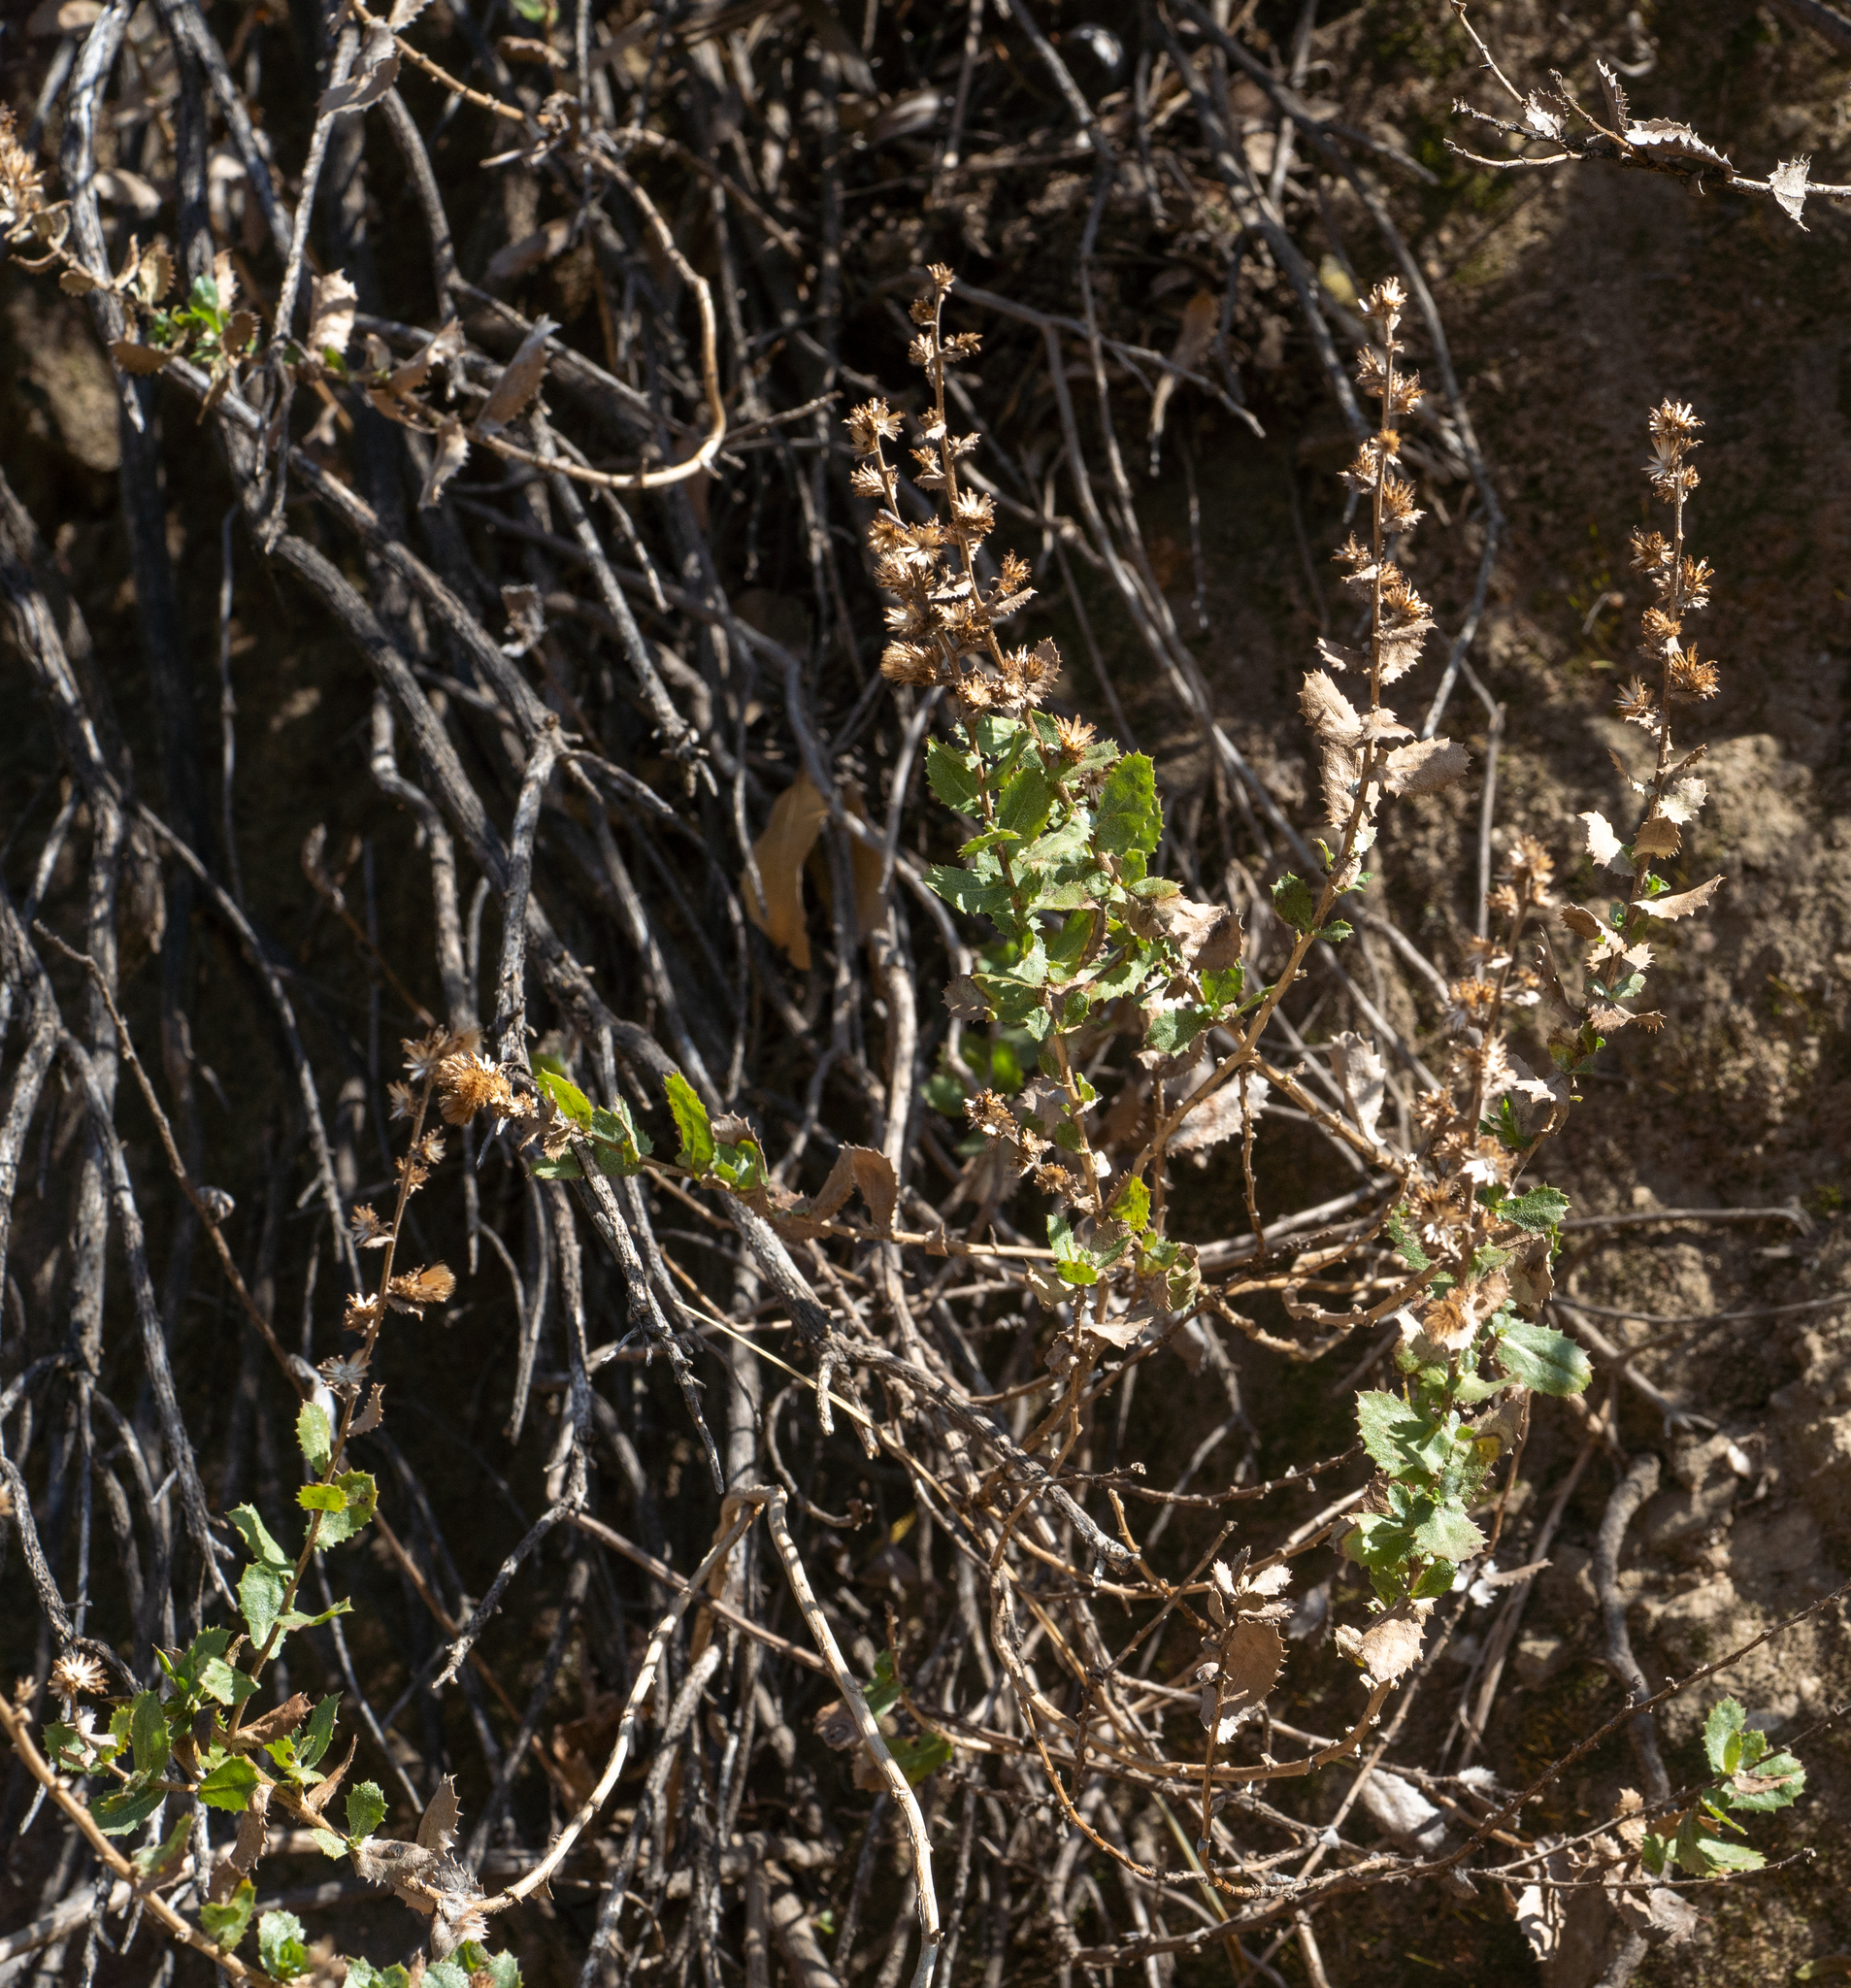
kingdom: Plantae
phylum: Tracheophyta
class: Magnoliopsida
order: Asterales
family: Asteraceae
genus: Hazardia
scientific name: Hazardia squarrosa
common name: Saw-tooth goldenbush
